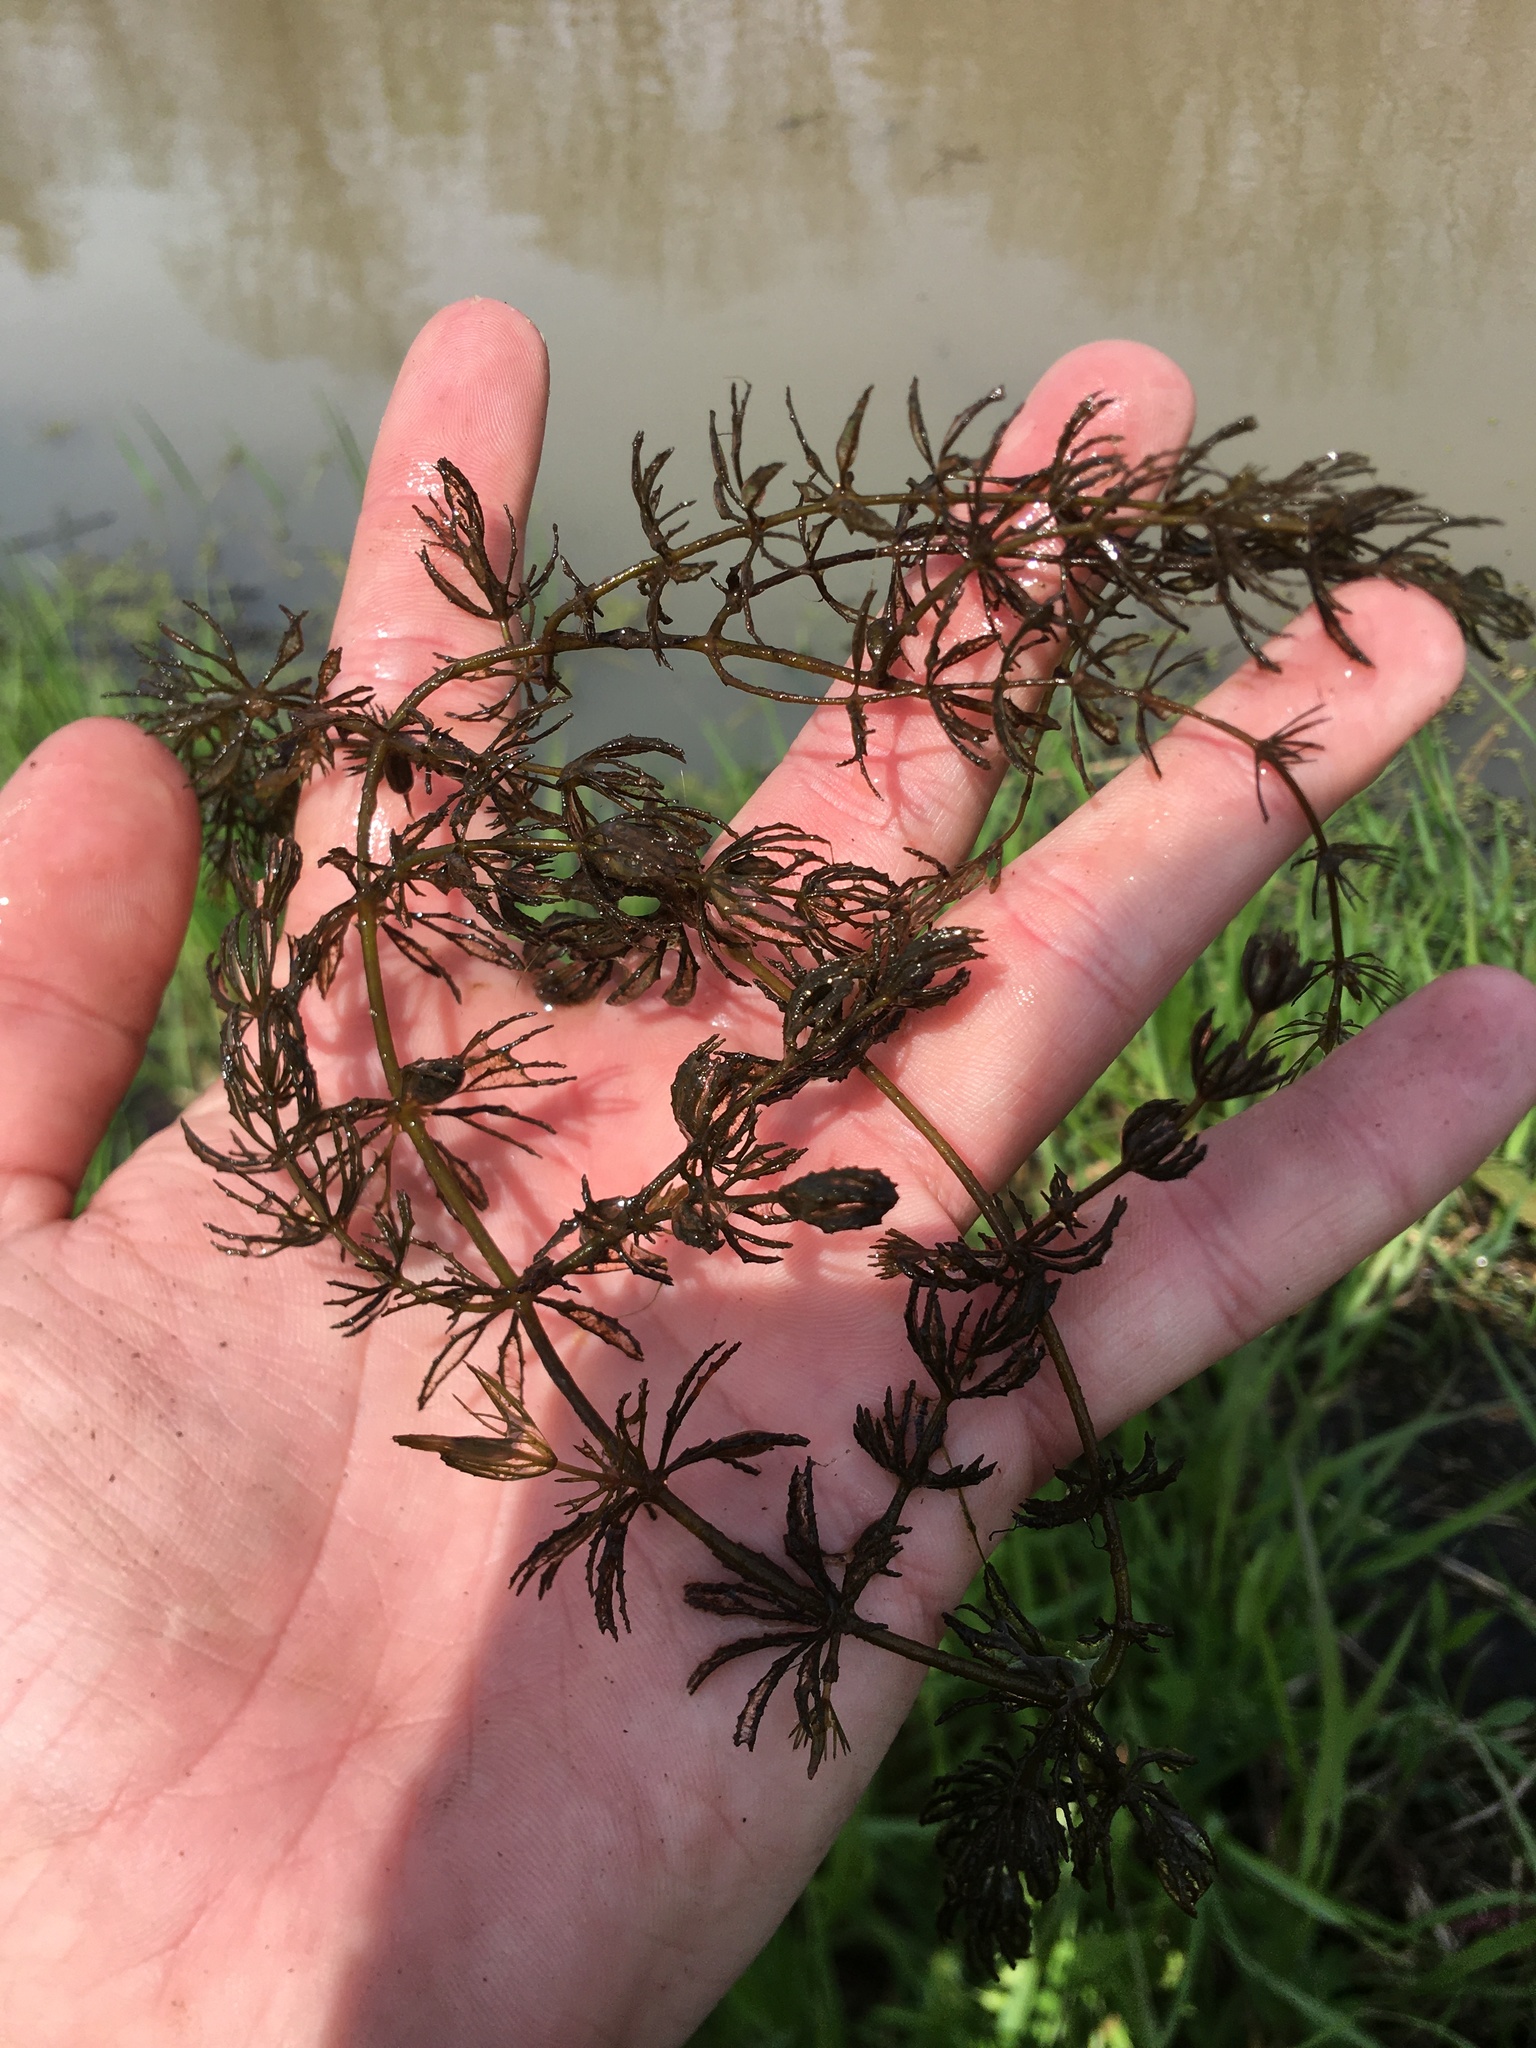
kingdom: Plantae
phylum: Tracheophyta
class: Magnoliopsida
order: Ceratophyllales
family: Ceratophyllaceae
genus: Ceratophyllum
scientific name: Ceratophyllum demersum
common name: Rigid hornwort
